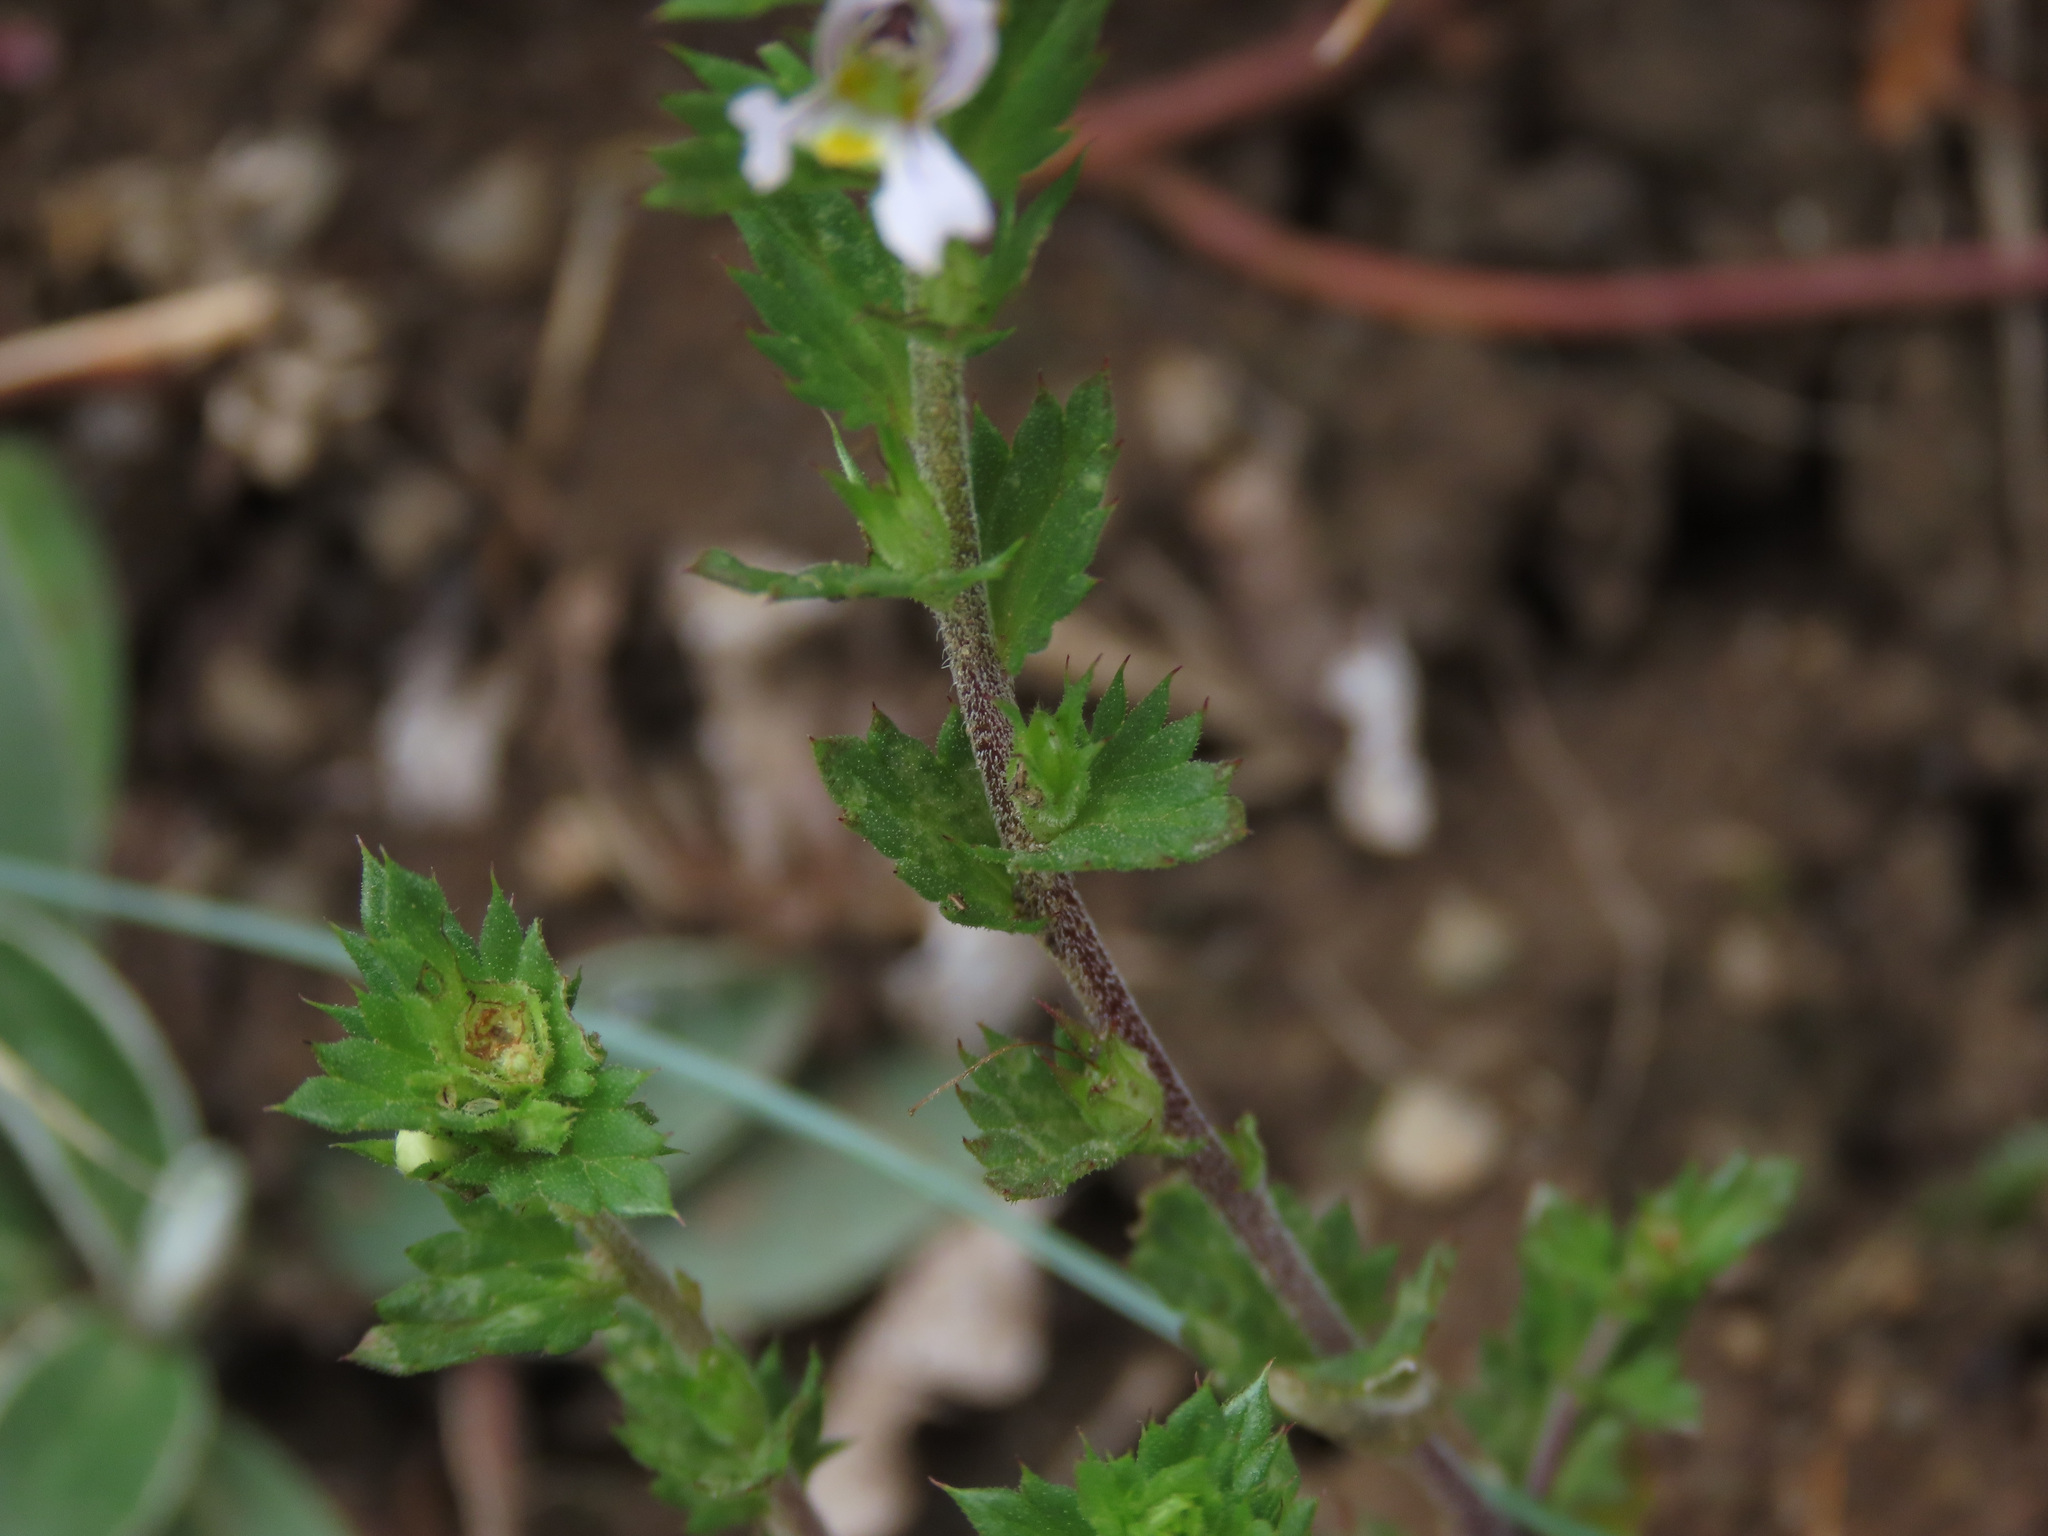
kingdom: Plantae
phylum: Tracheophyta
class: Magnoliopsida
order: Lamiales
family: Orobanchaceae
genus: Euphrasia
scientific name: Euphrasia stricta
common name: Drug eyebright
